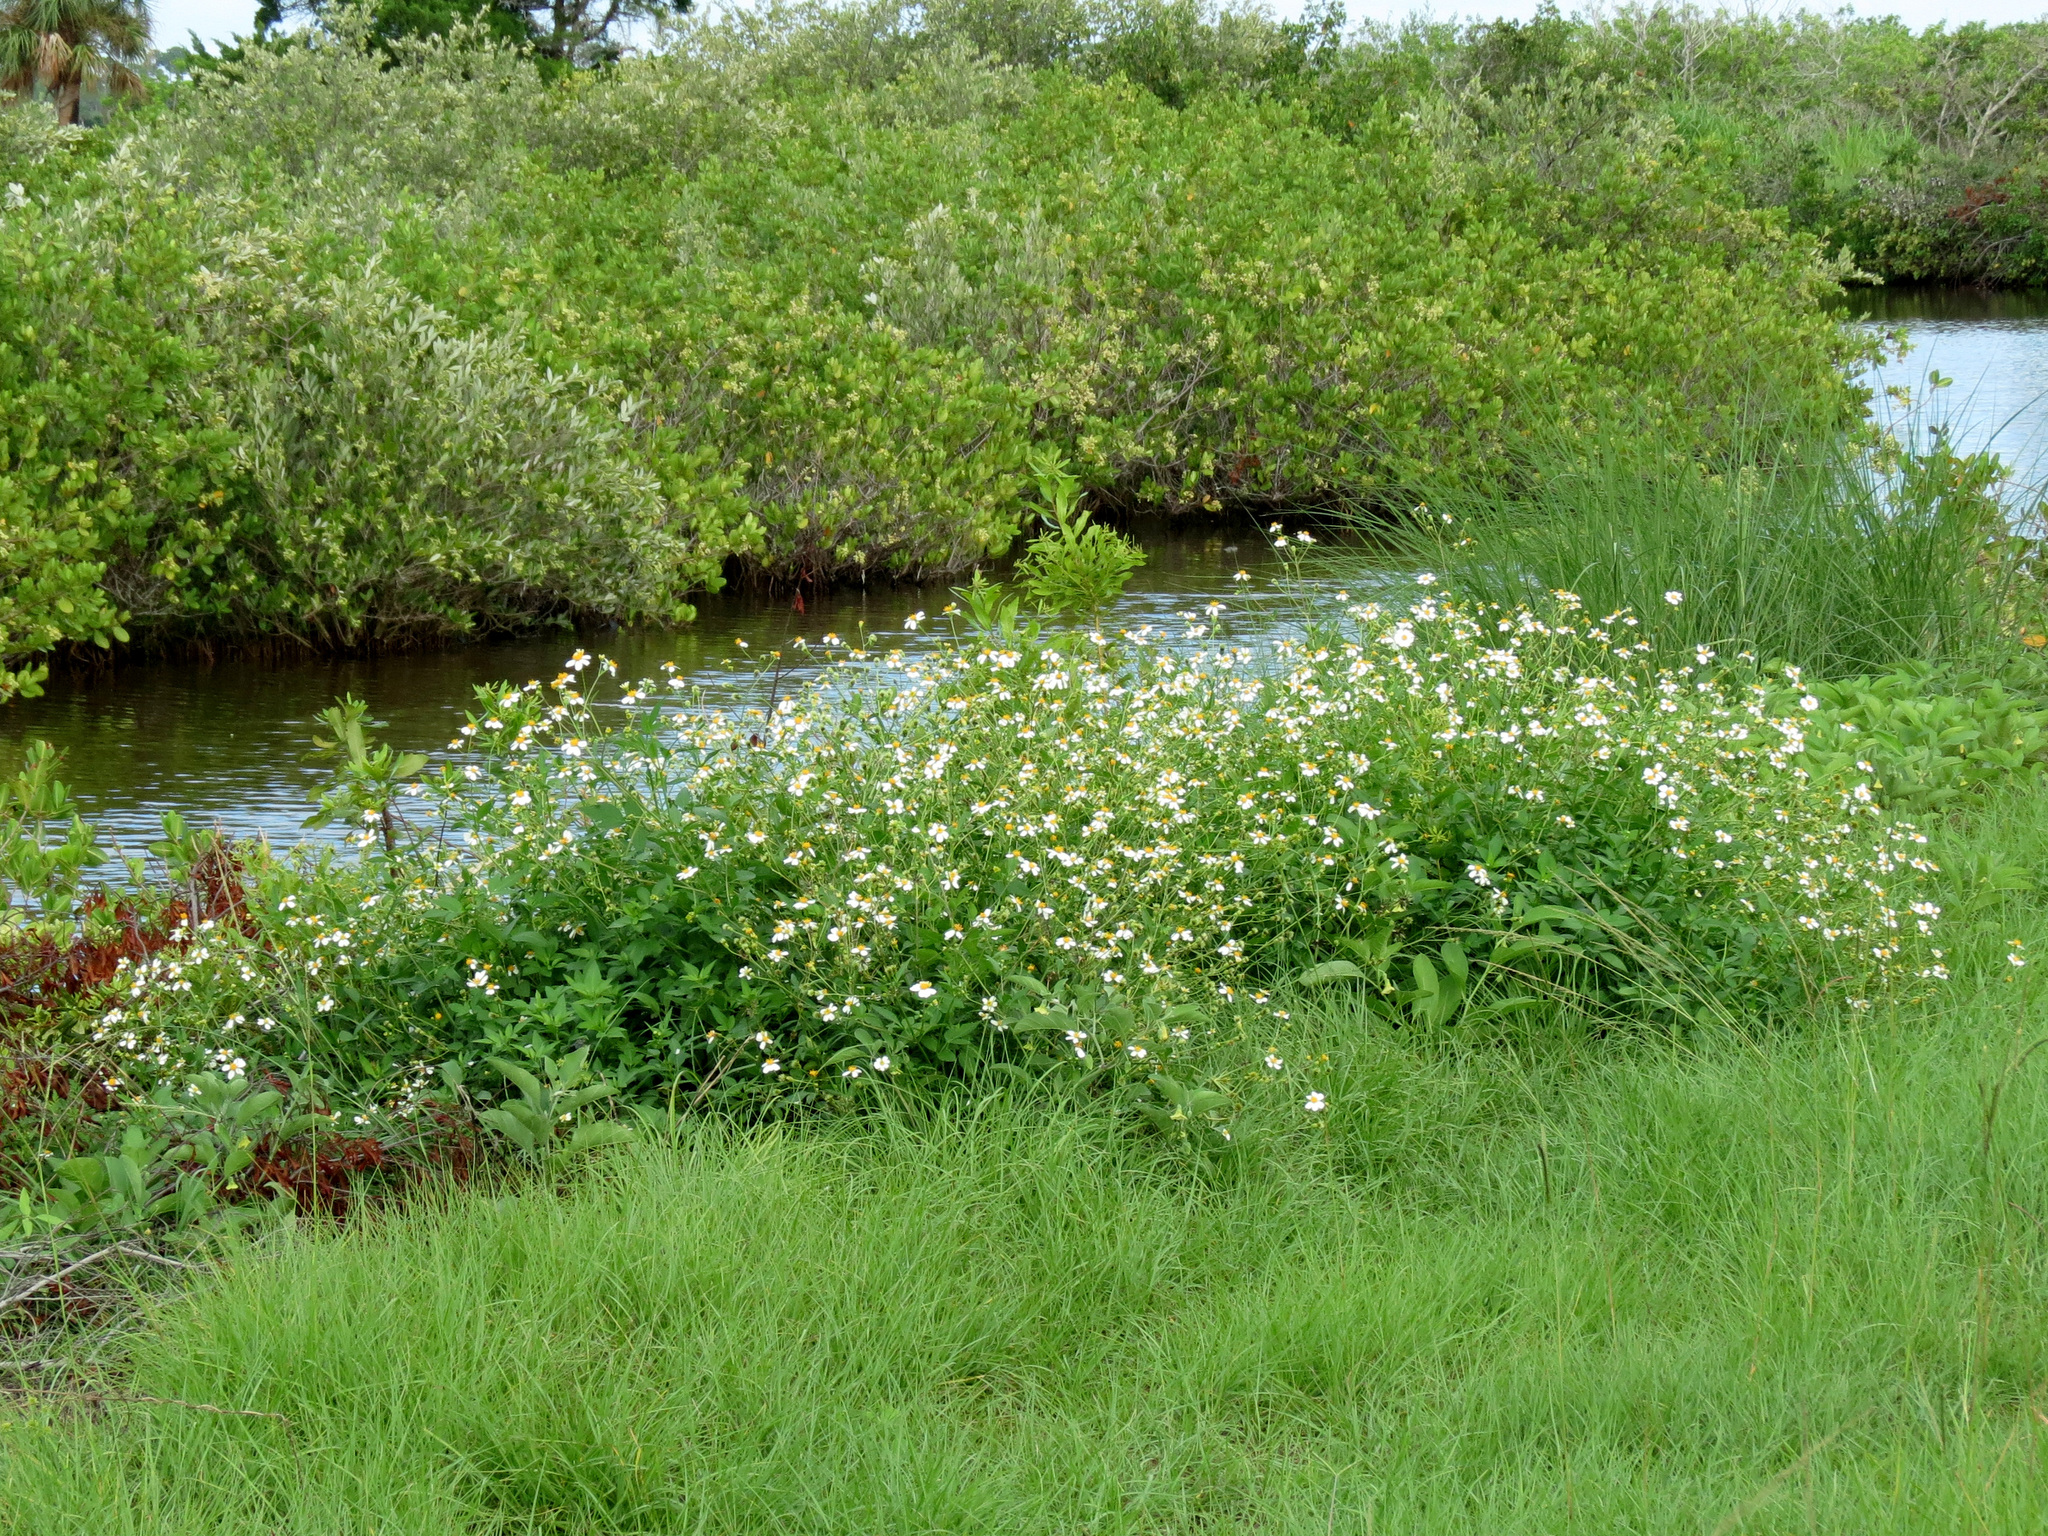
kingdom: Plantae
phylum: Tracheophyta
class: Magnoliopsida
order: Asterales
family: Asteraceae
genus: Bidens
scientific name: Bidens alba
